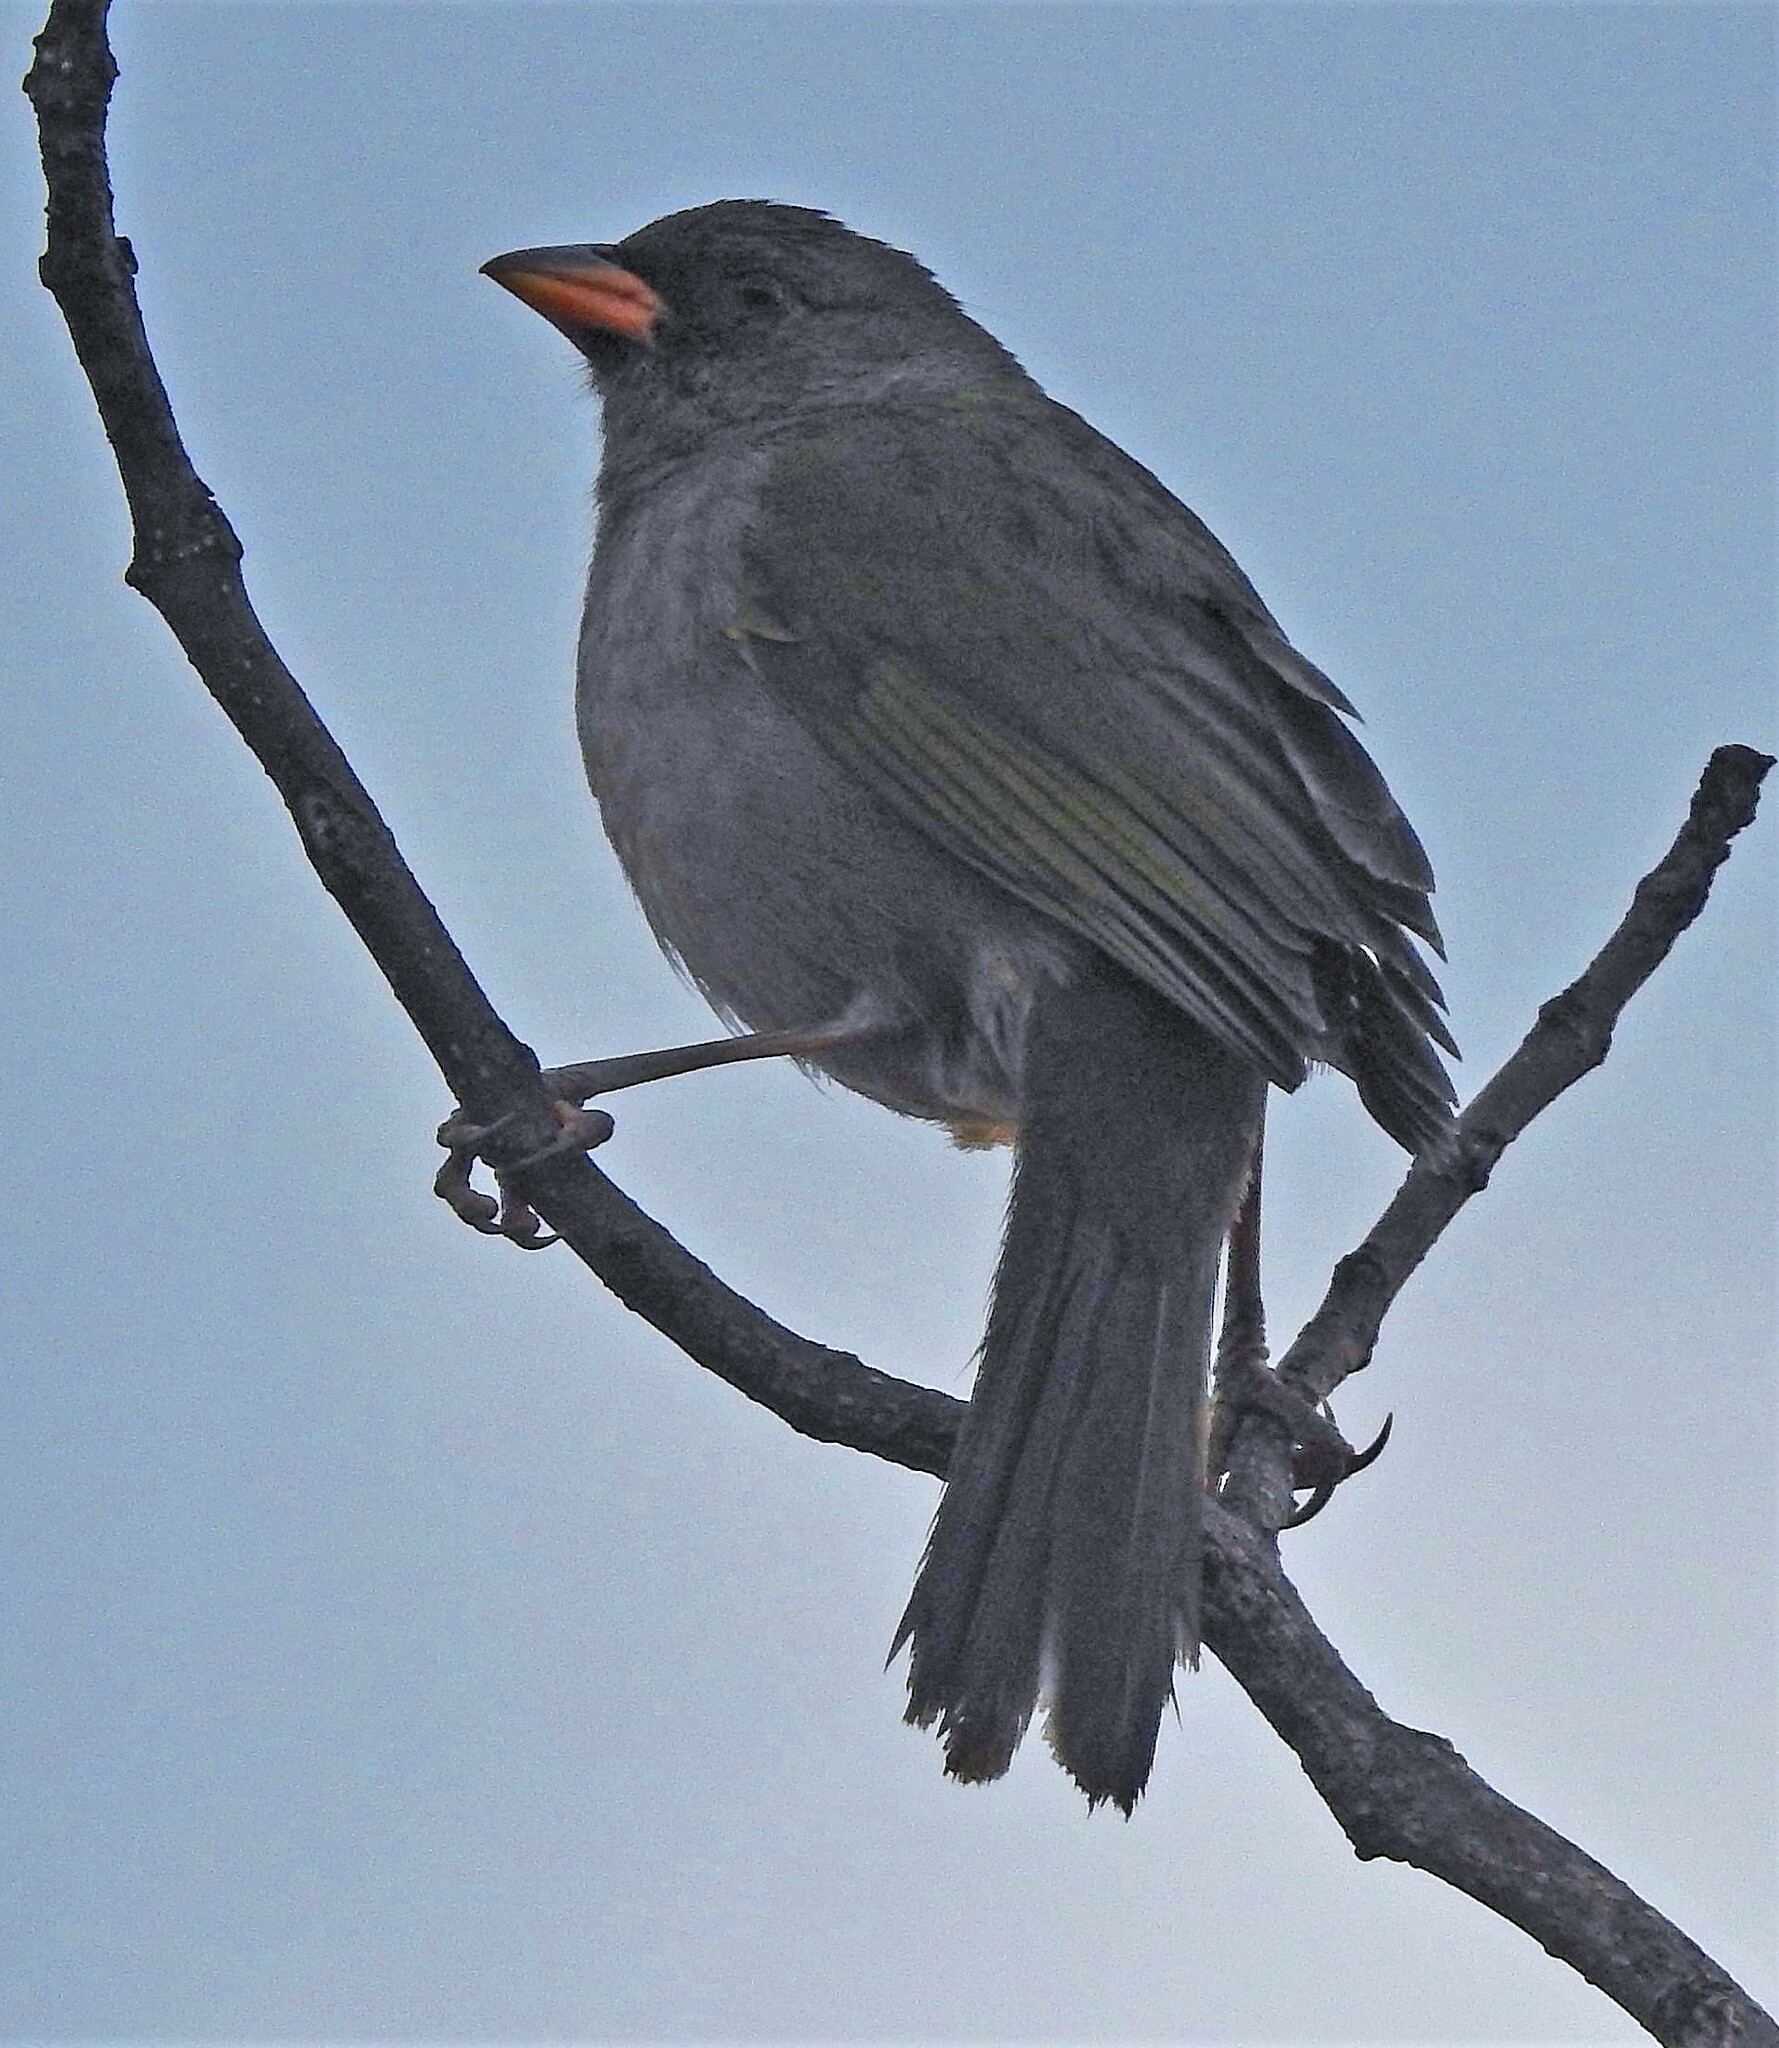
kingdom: Animalia
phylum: Chordata
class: Aves
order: Passeriformes
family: Thraupidae
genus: Embernagra
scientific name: Embernagra platensis
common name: Pampa finch
